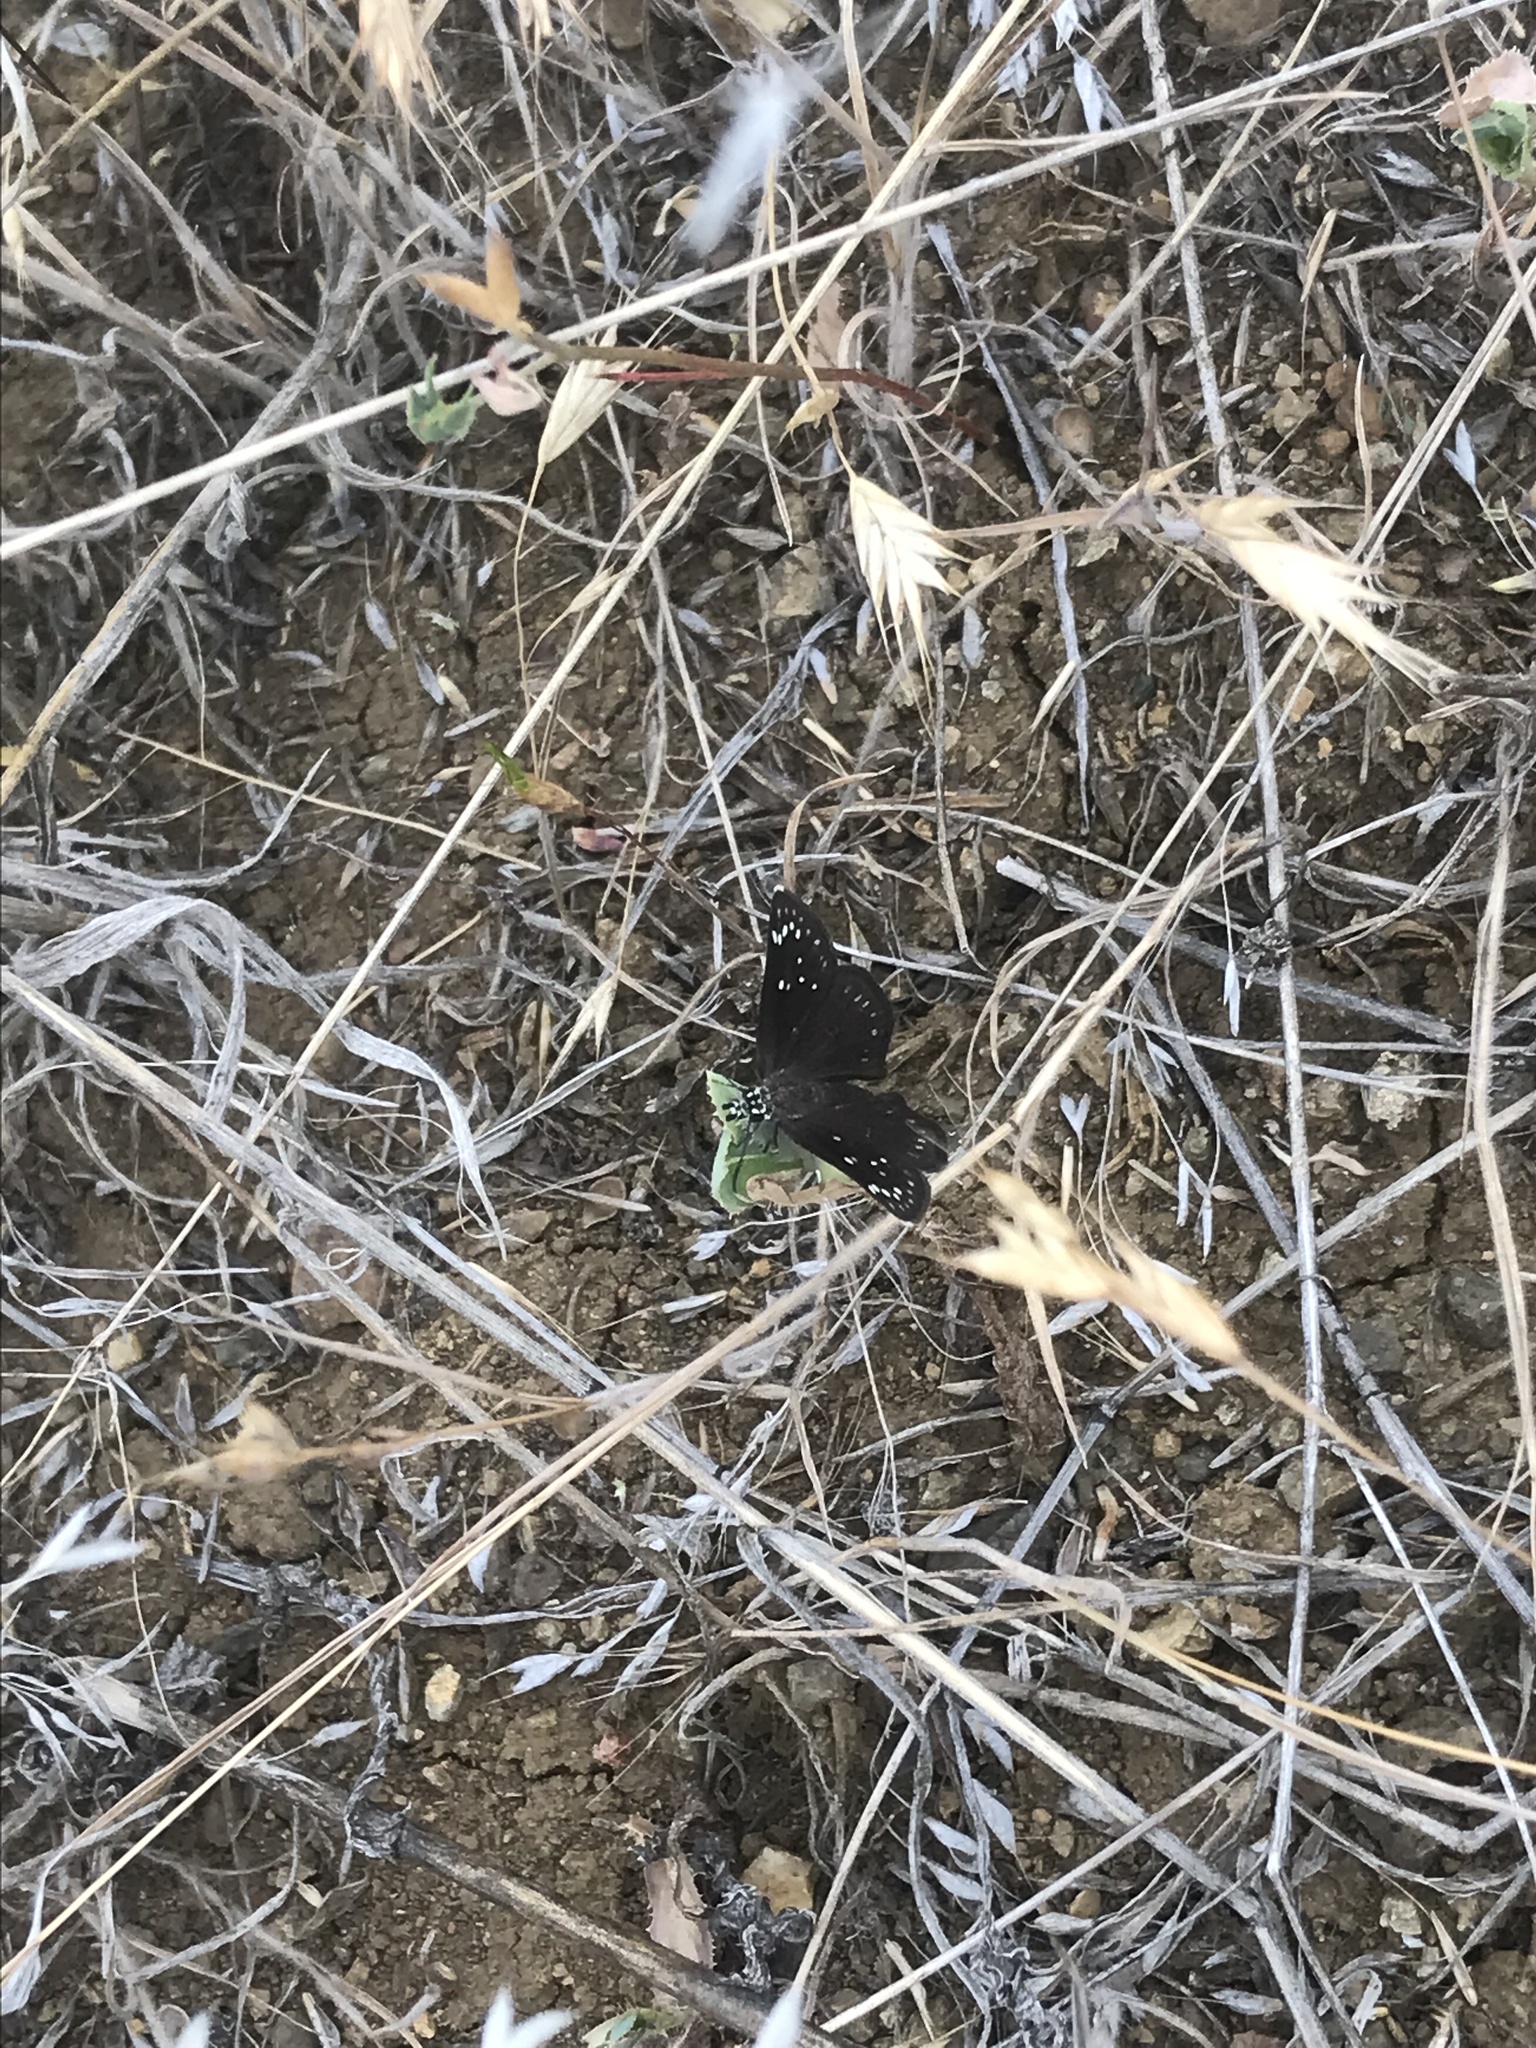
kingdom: Animalia
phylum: Arthropoda
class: Insecta
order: Lepidoptera
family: Hesperiidae
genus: Pholisora
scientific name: Pholisora catullus
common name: Common sootywing
